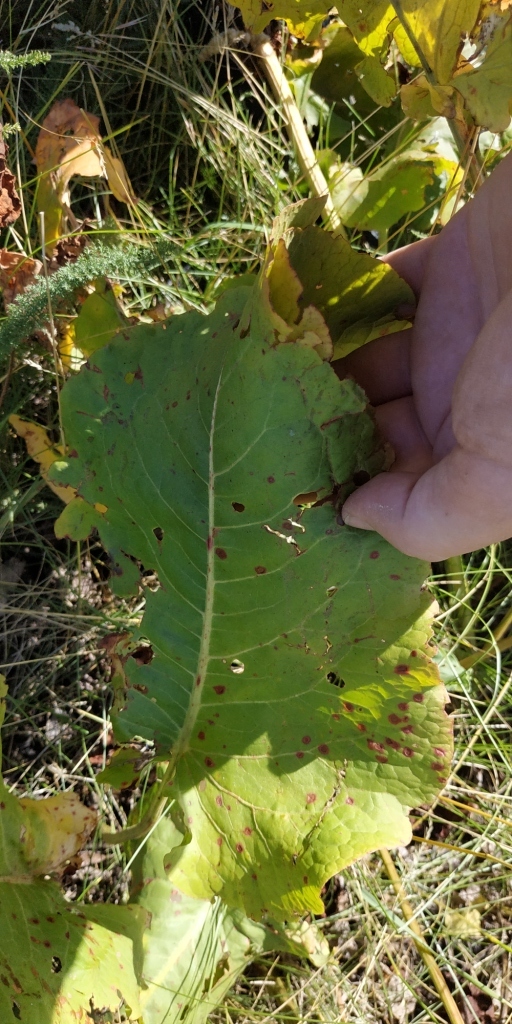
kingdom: Plantae
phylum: Tracheophyta
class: Magnoliopsida
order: Caryophyllales
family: Polygonaceae
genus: Rumex
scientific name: Rumex confertus
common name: Russian dock
